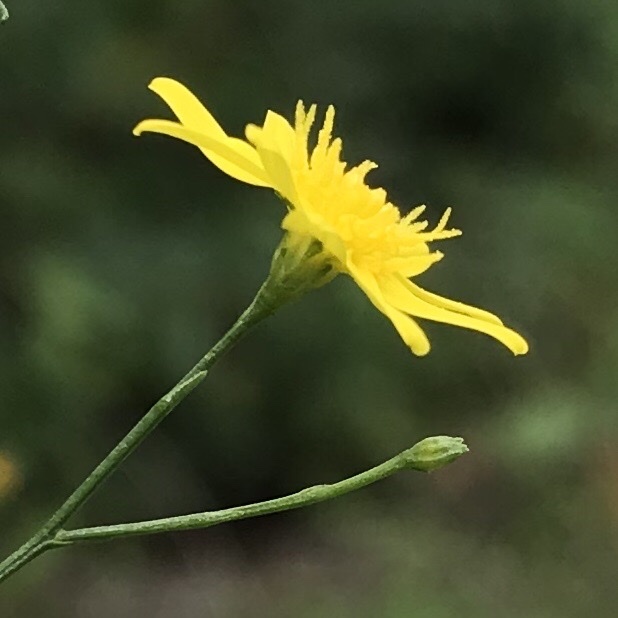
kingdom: Plantae
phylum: Tracheophyta
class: Magnoliopsida
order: Asterales
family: Asteraceae
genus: Gutierrezia
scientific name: Gutierrezia texana
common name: Texas snakeweed
